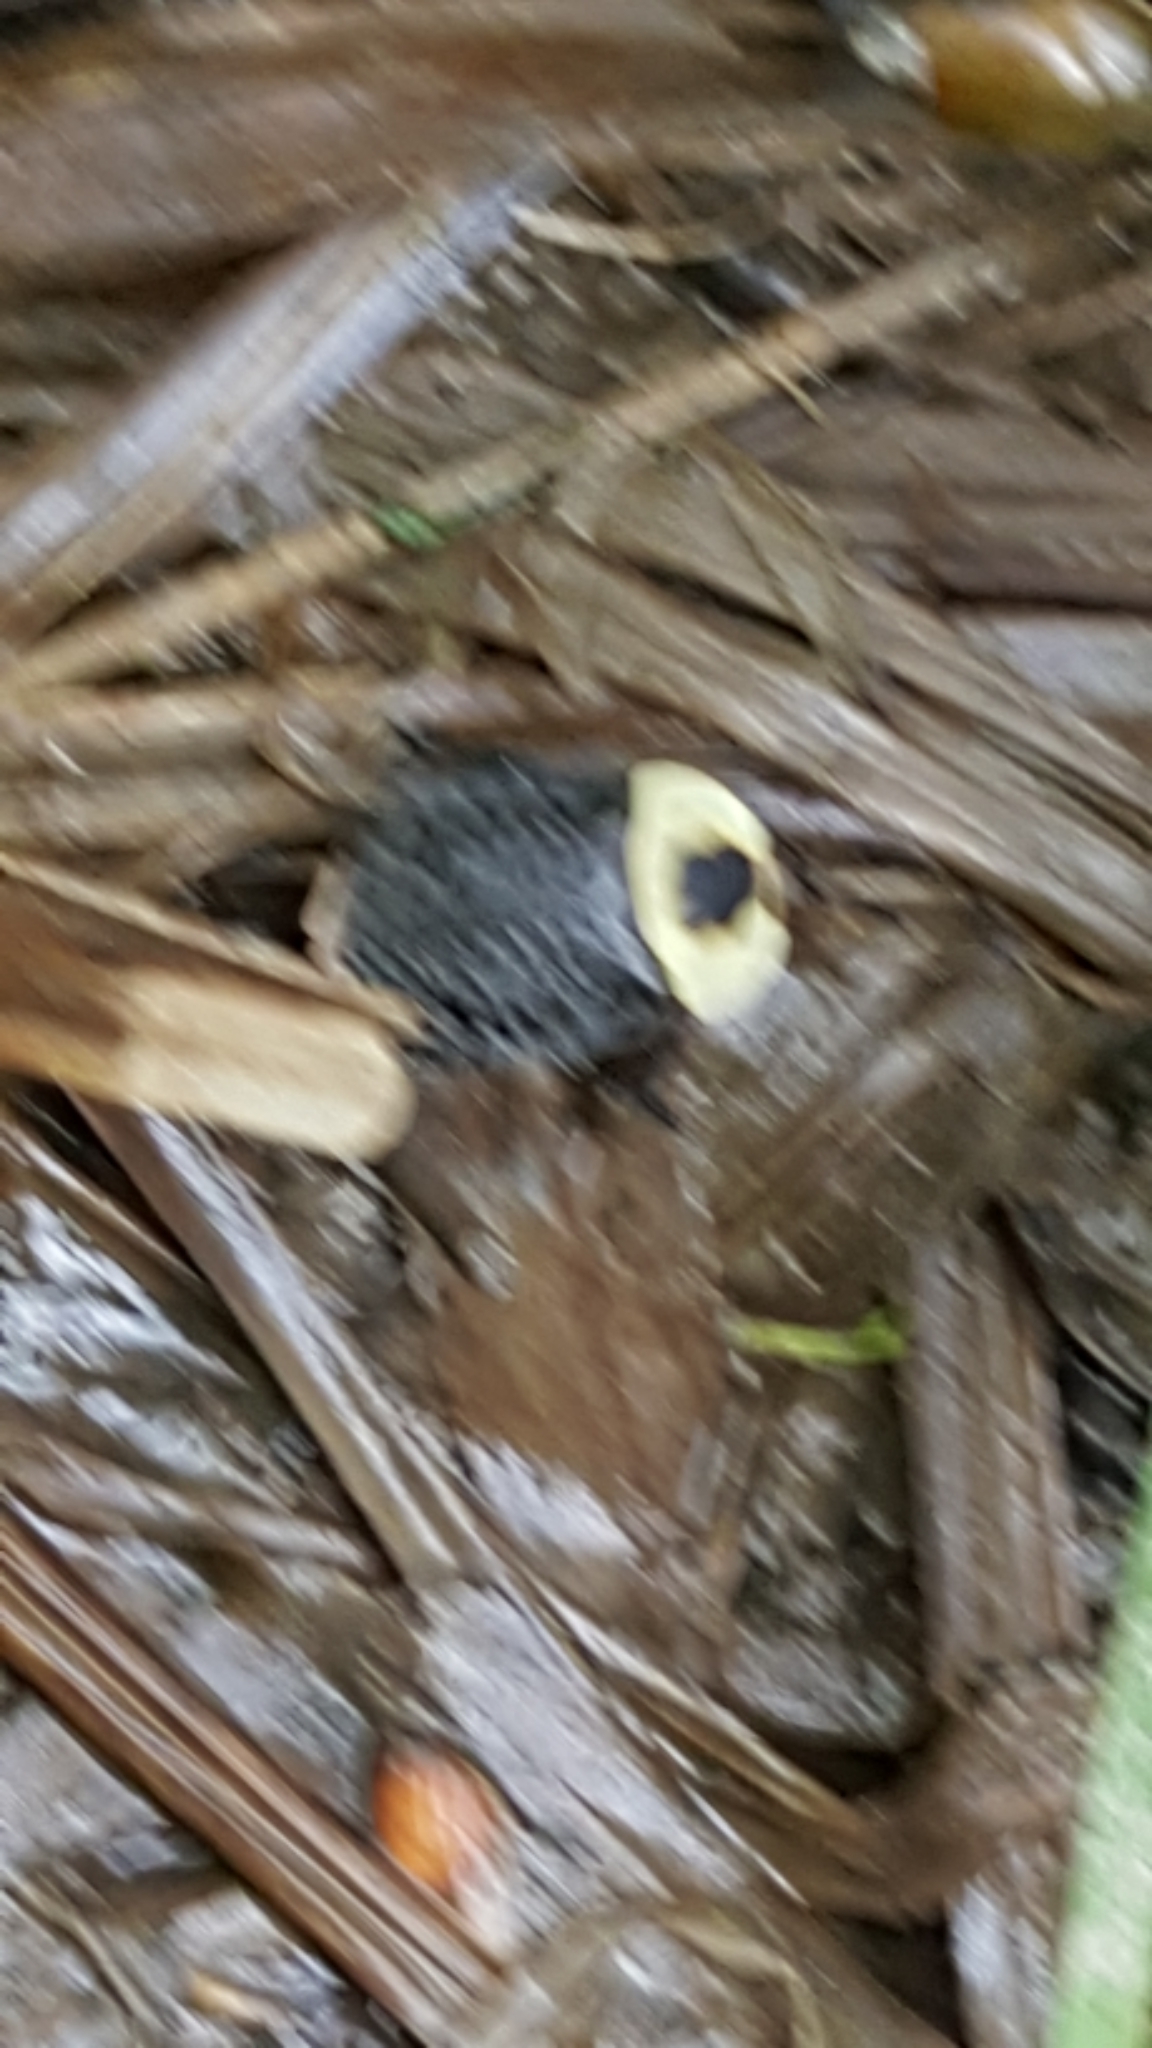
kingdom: Animalia
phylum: Arthropoda
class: Insecta
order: Coleoptera
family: Staphylinidae
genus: Necrophila
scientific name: Necrophila americana
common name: American carrion beetle
